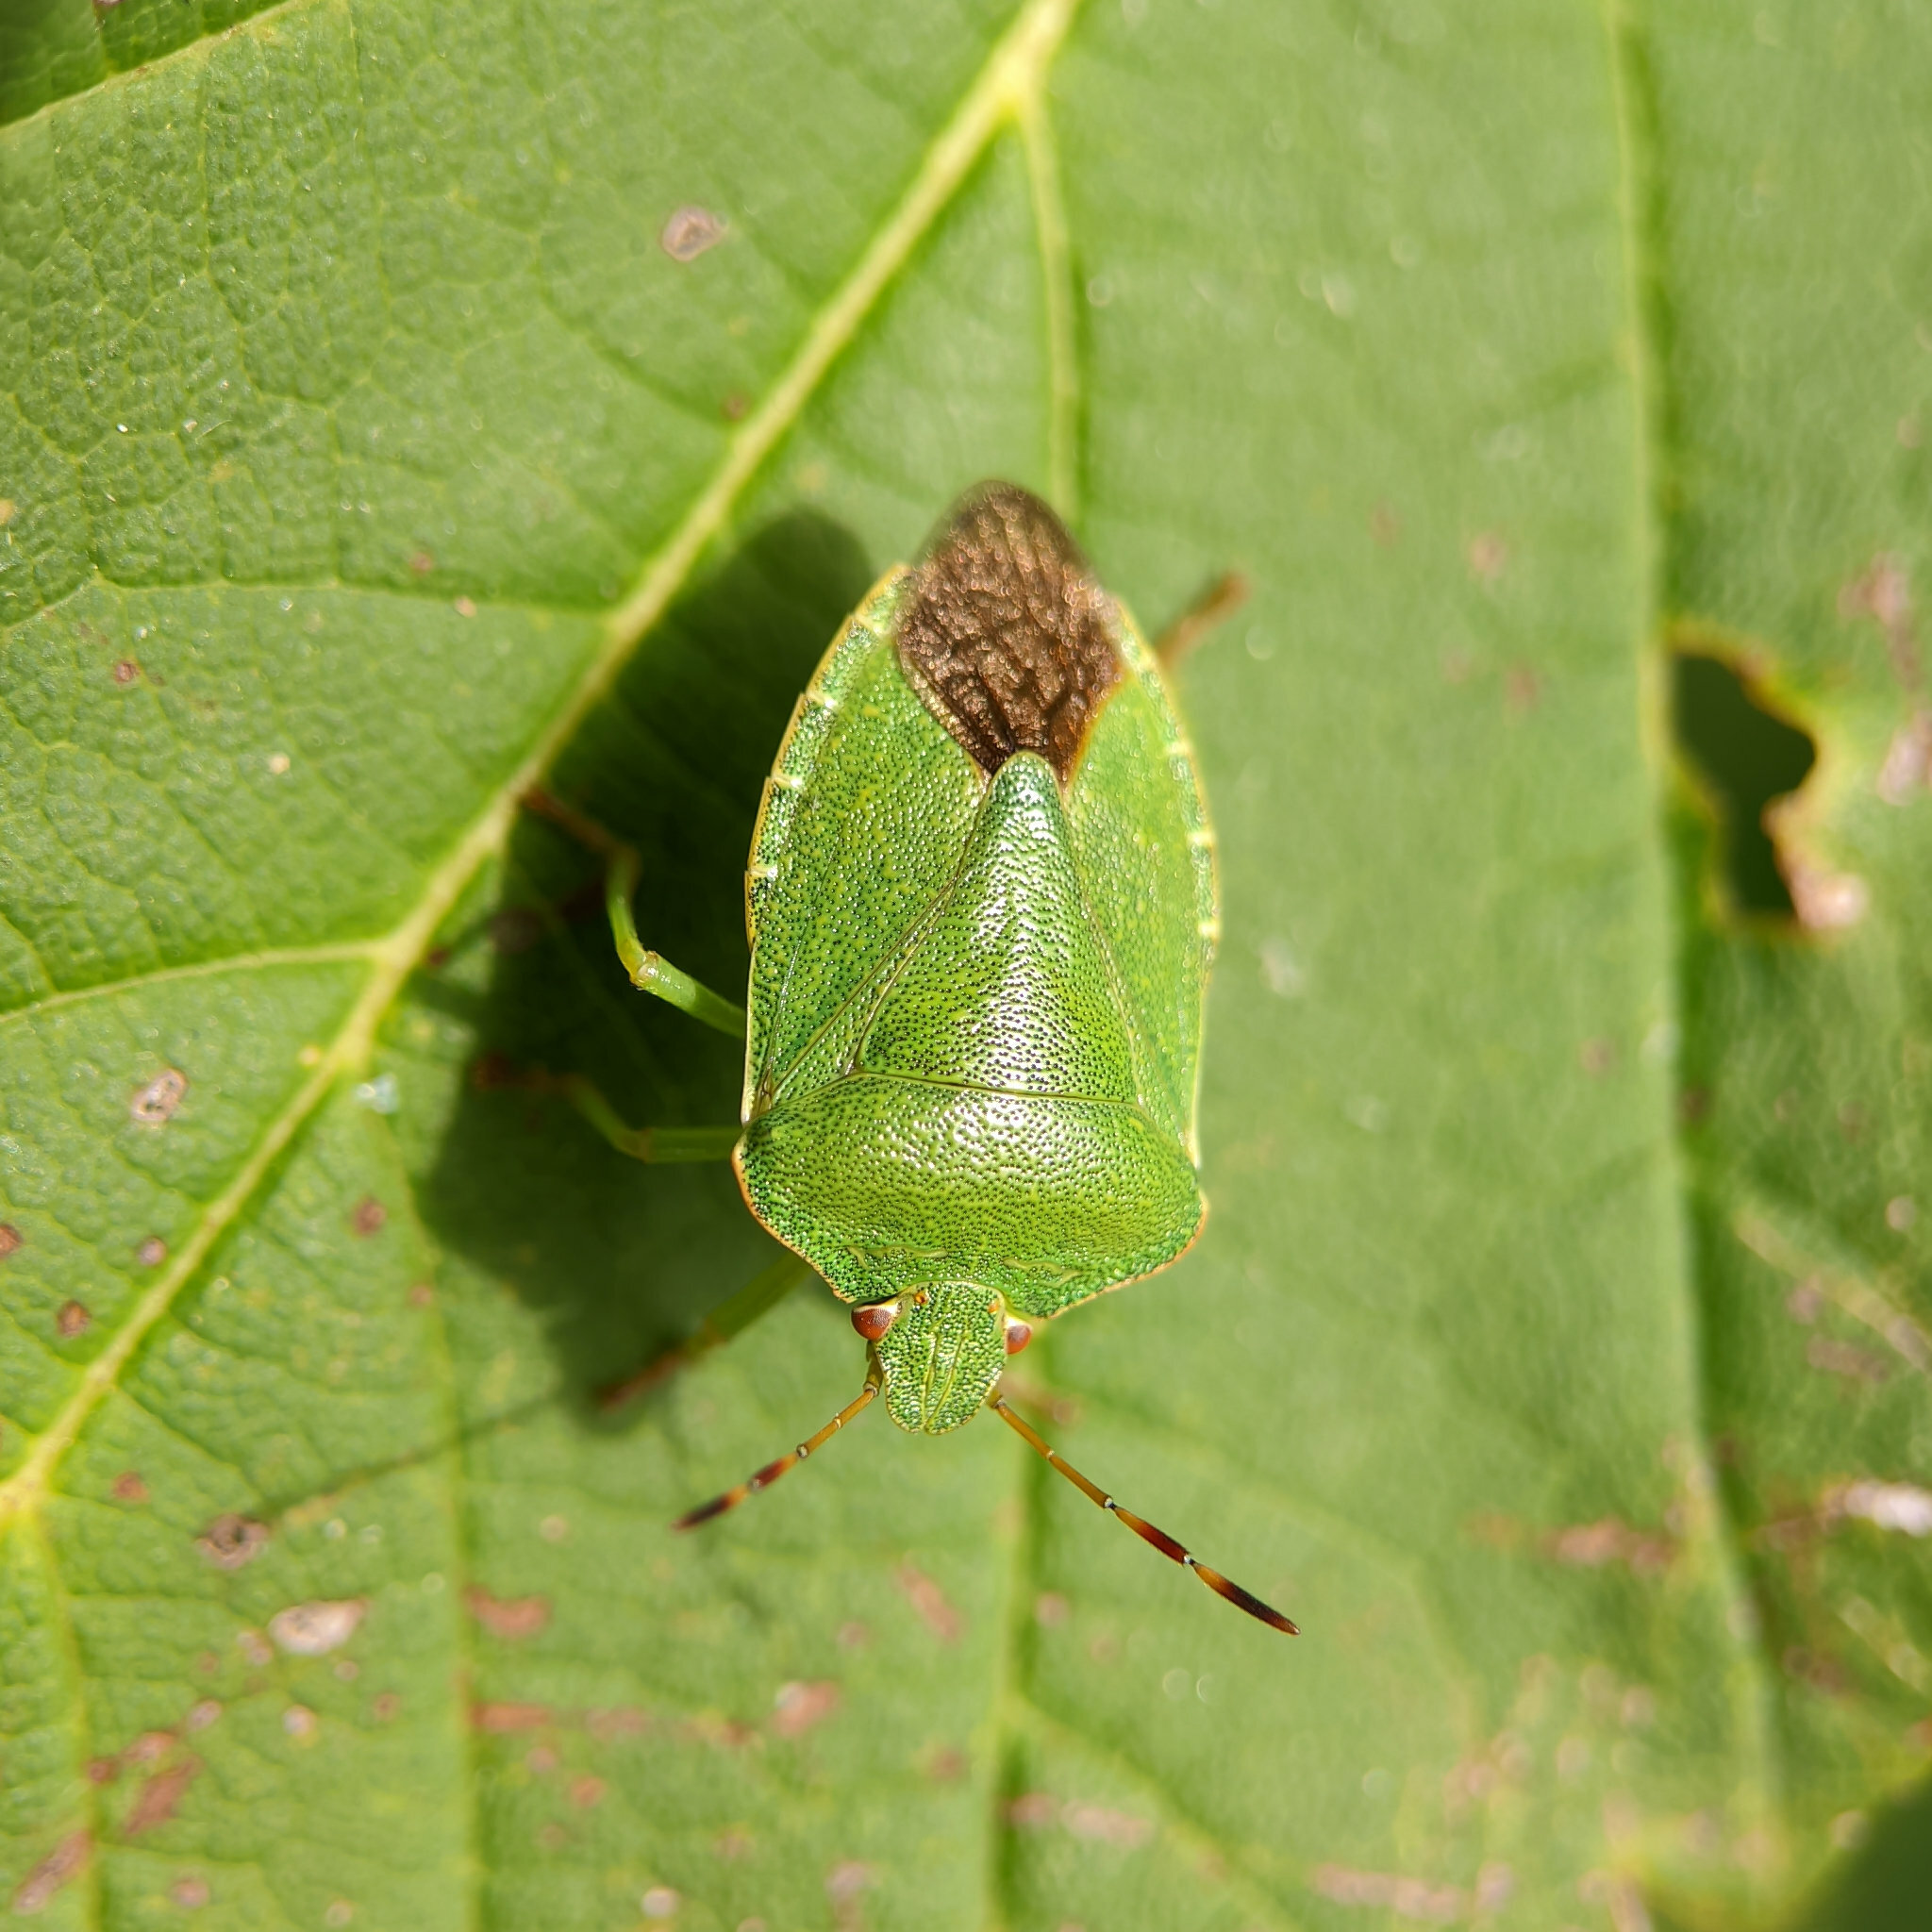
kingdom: Animalia
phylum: Arthropoda
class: Insecta
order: Hemiptera
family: Pentatomidae
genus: Palomena
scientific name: Palomena prasina
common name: Green shieldbug
